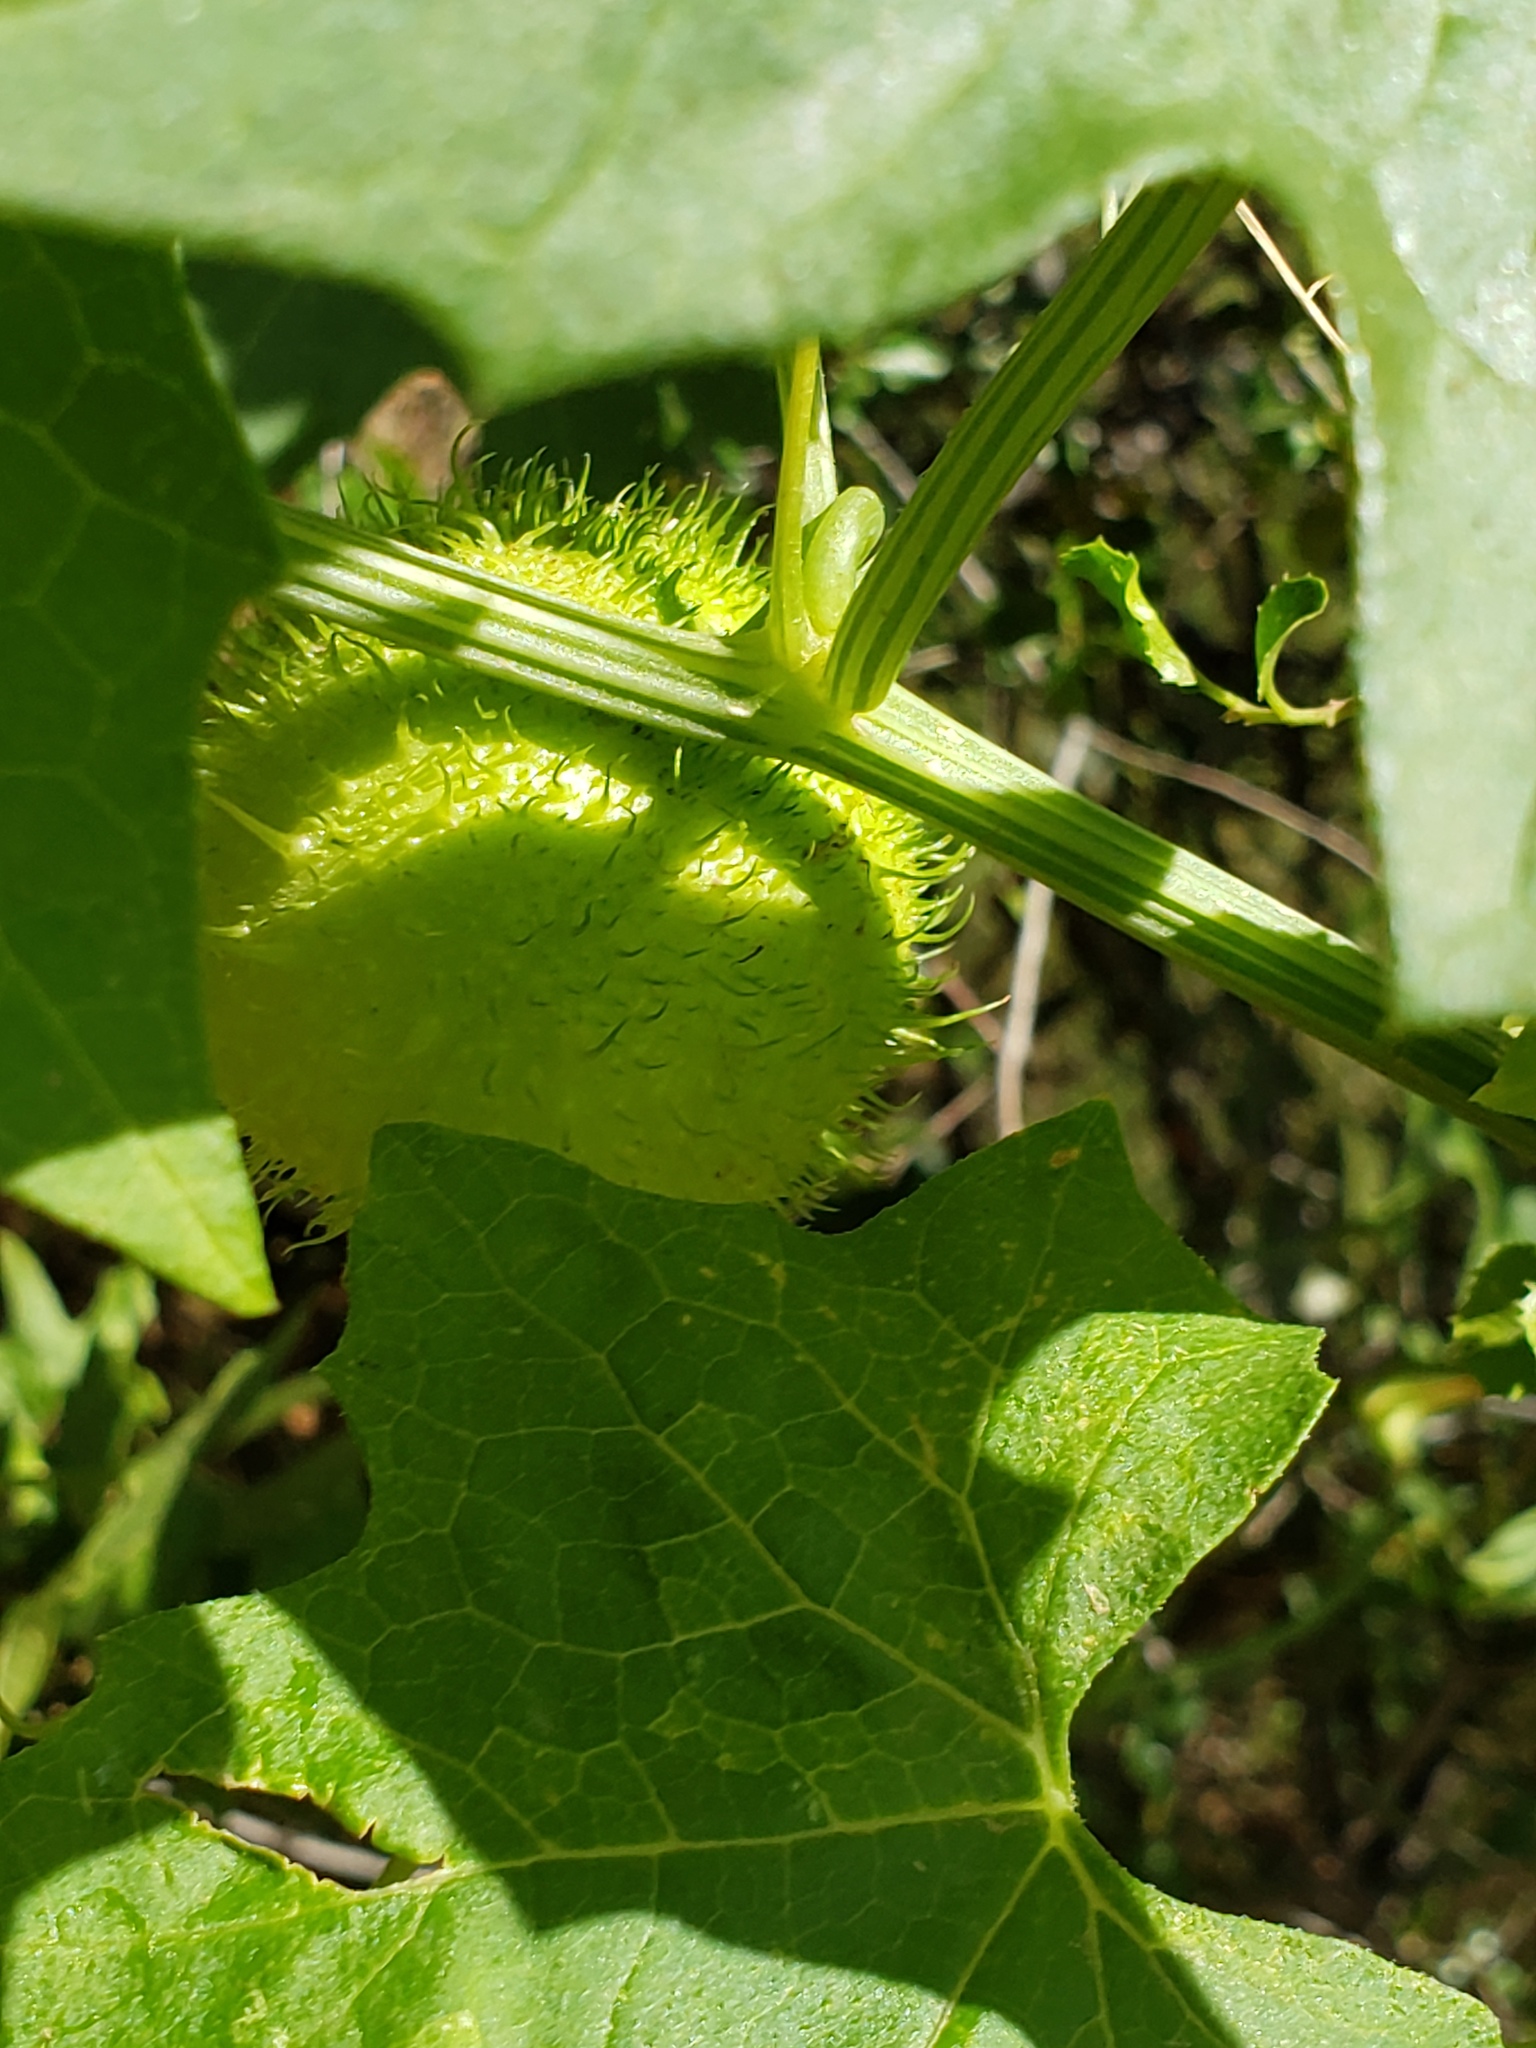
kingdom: Plantae
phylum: Tracheophyta
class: Magnoliopsida
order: Cucurbitales
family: Cucurbitaceae
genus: Marah
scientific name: Marah fabacea
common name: California manroot
